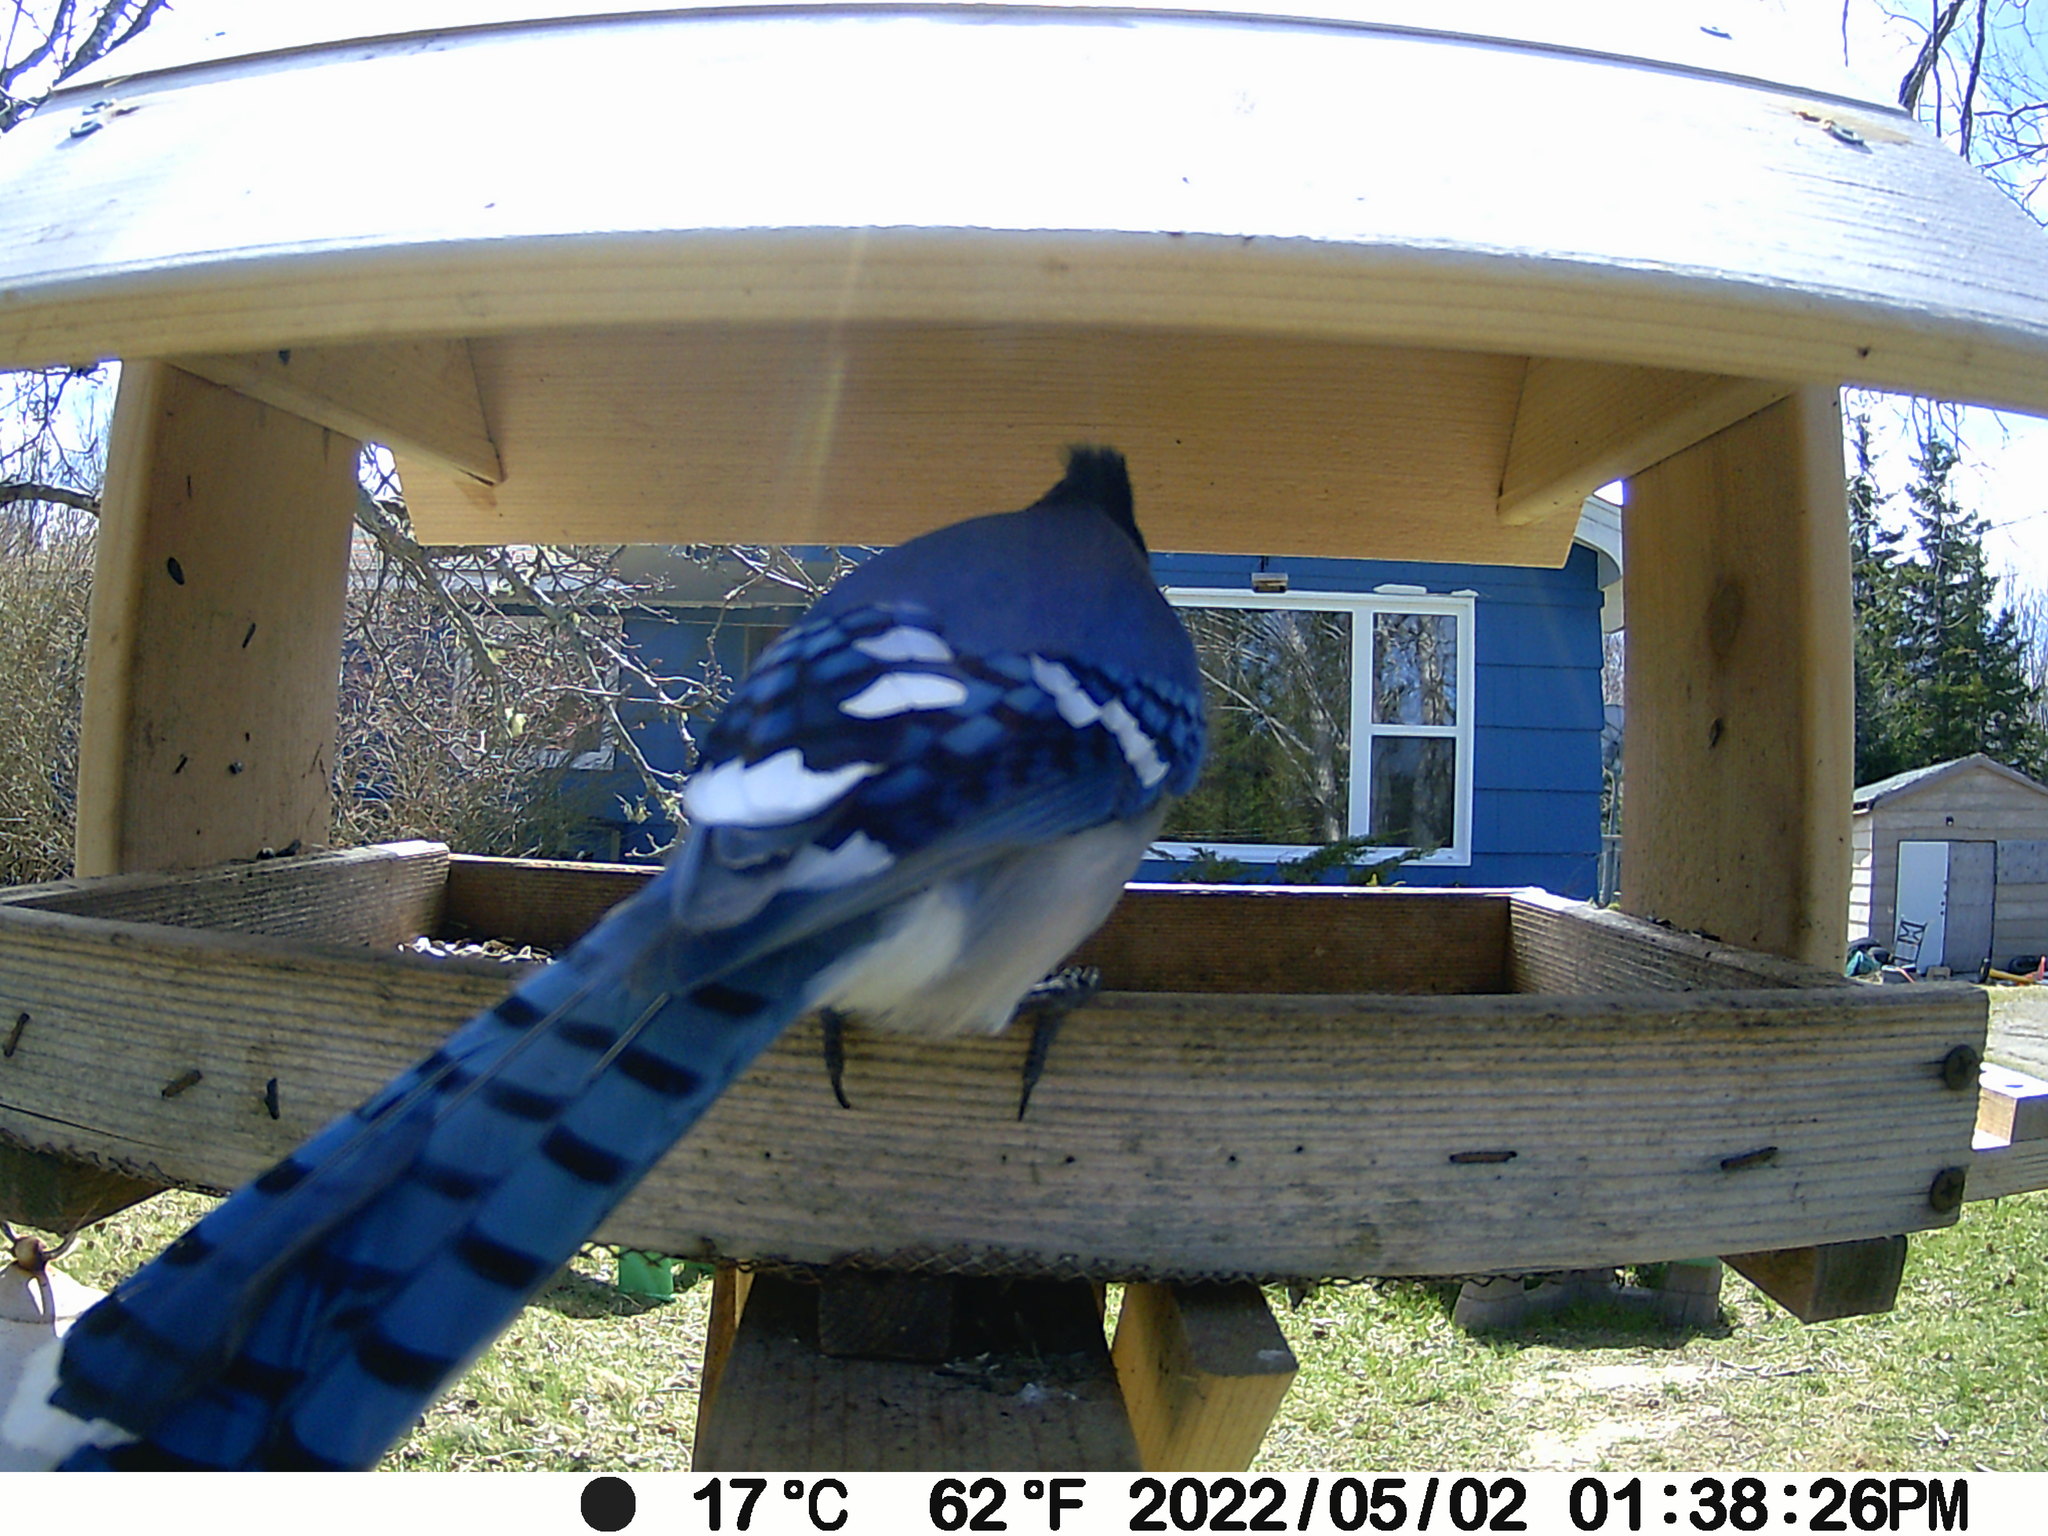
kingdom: Animalia
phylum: Chordata
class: Aves
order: Passeriformes
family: Corvidae
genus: Cyanocitta
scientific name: Cyanocitta cristata
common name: Blue jay
